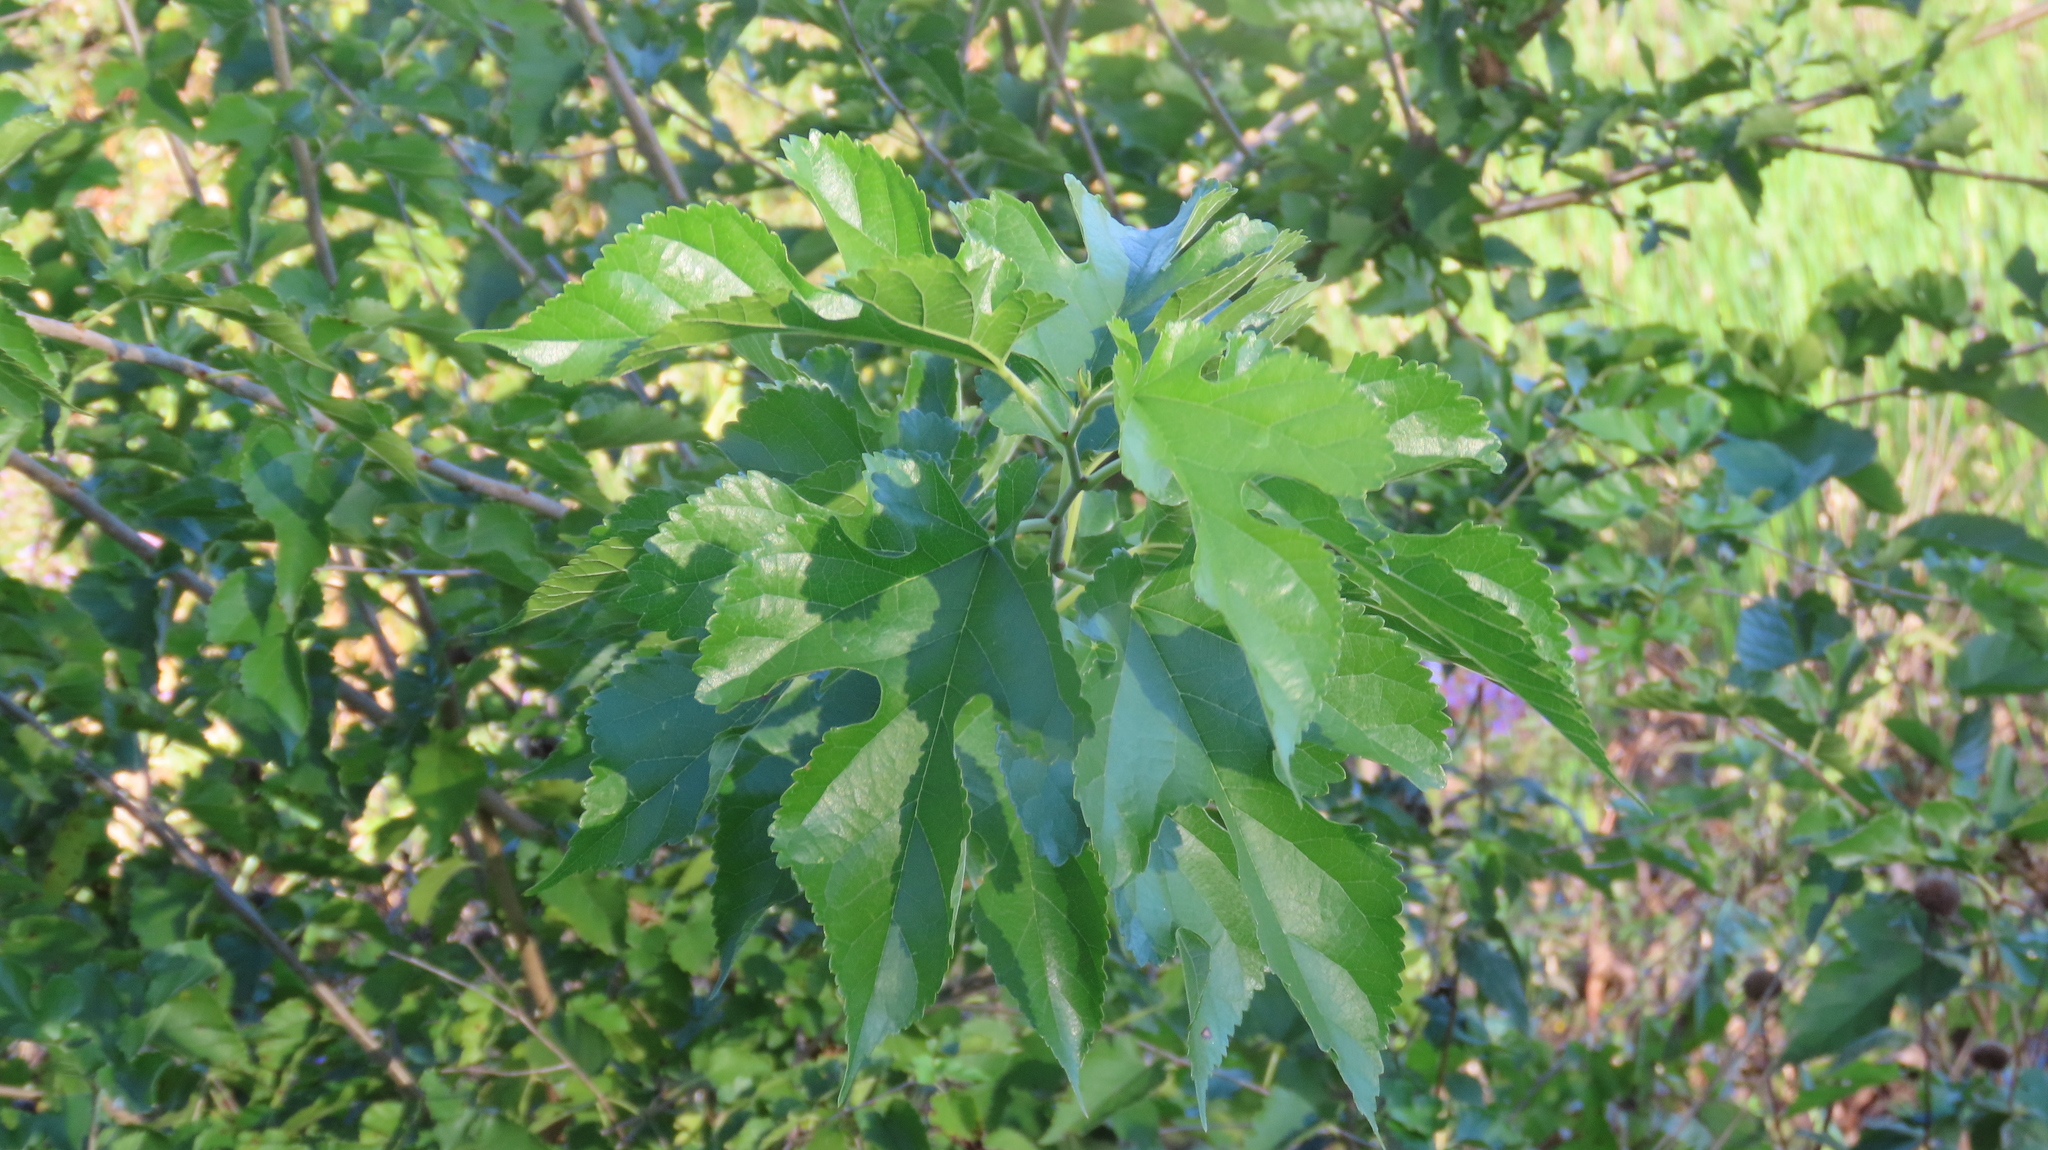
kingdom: Plantae
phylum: Tracheophyta
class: Magnoliopsida
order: Rosales
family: Moraceae
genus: Morus
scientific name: Morus alba
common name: White mulberry
